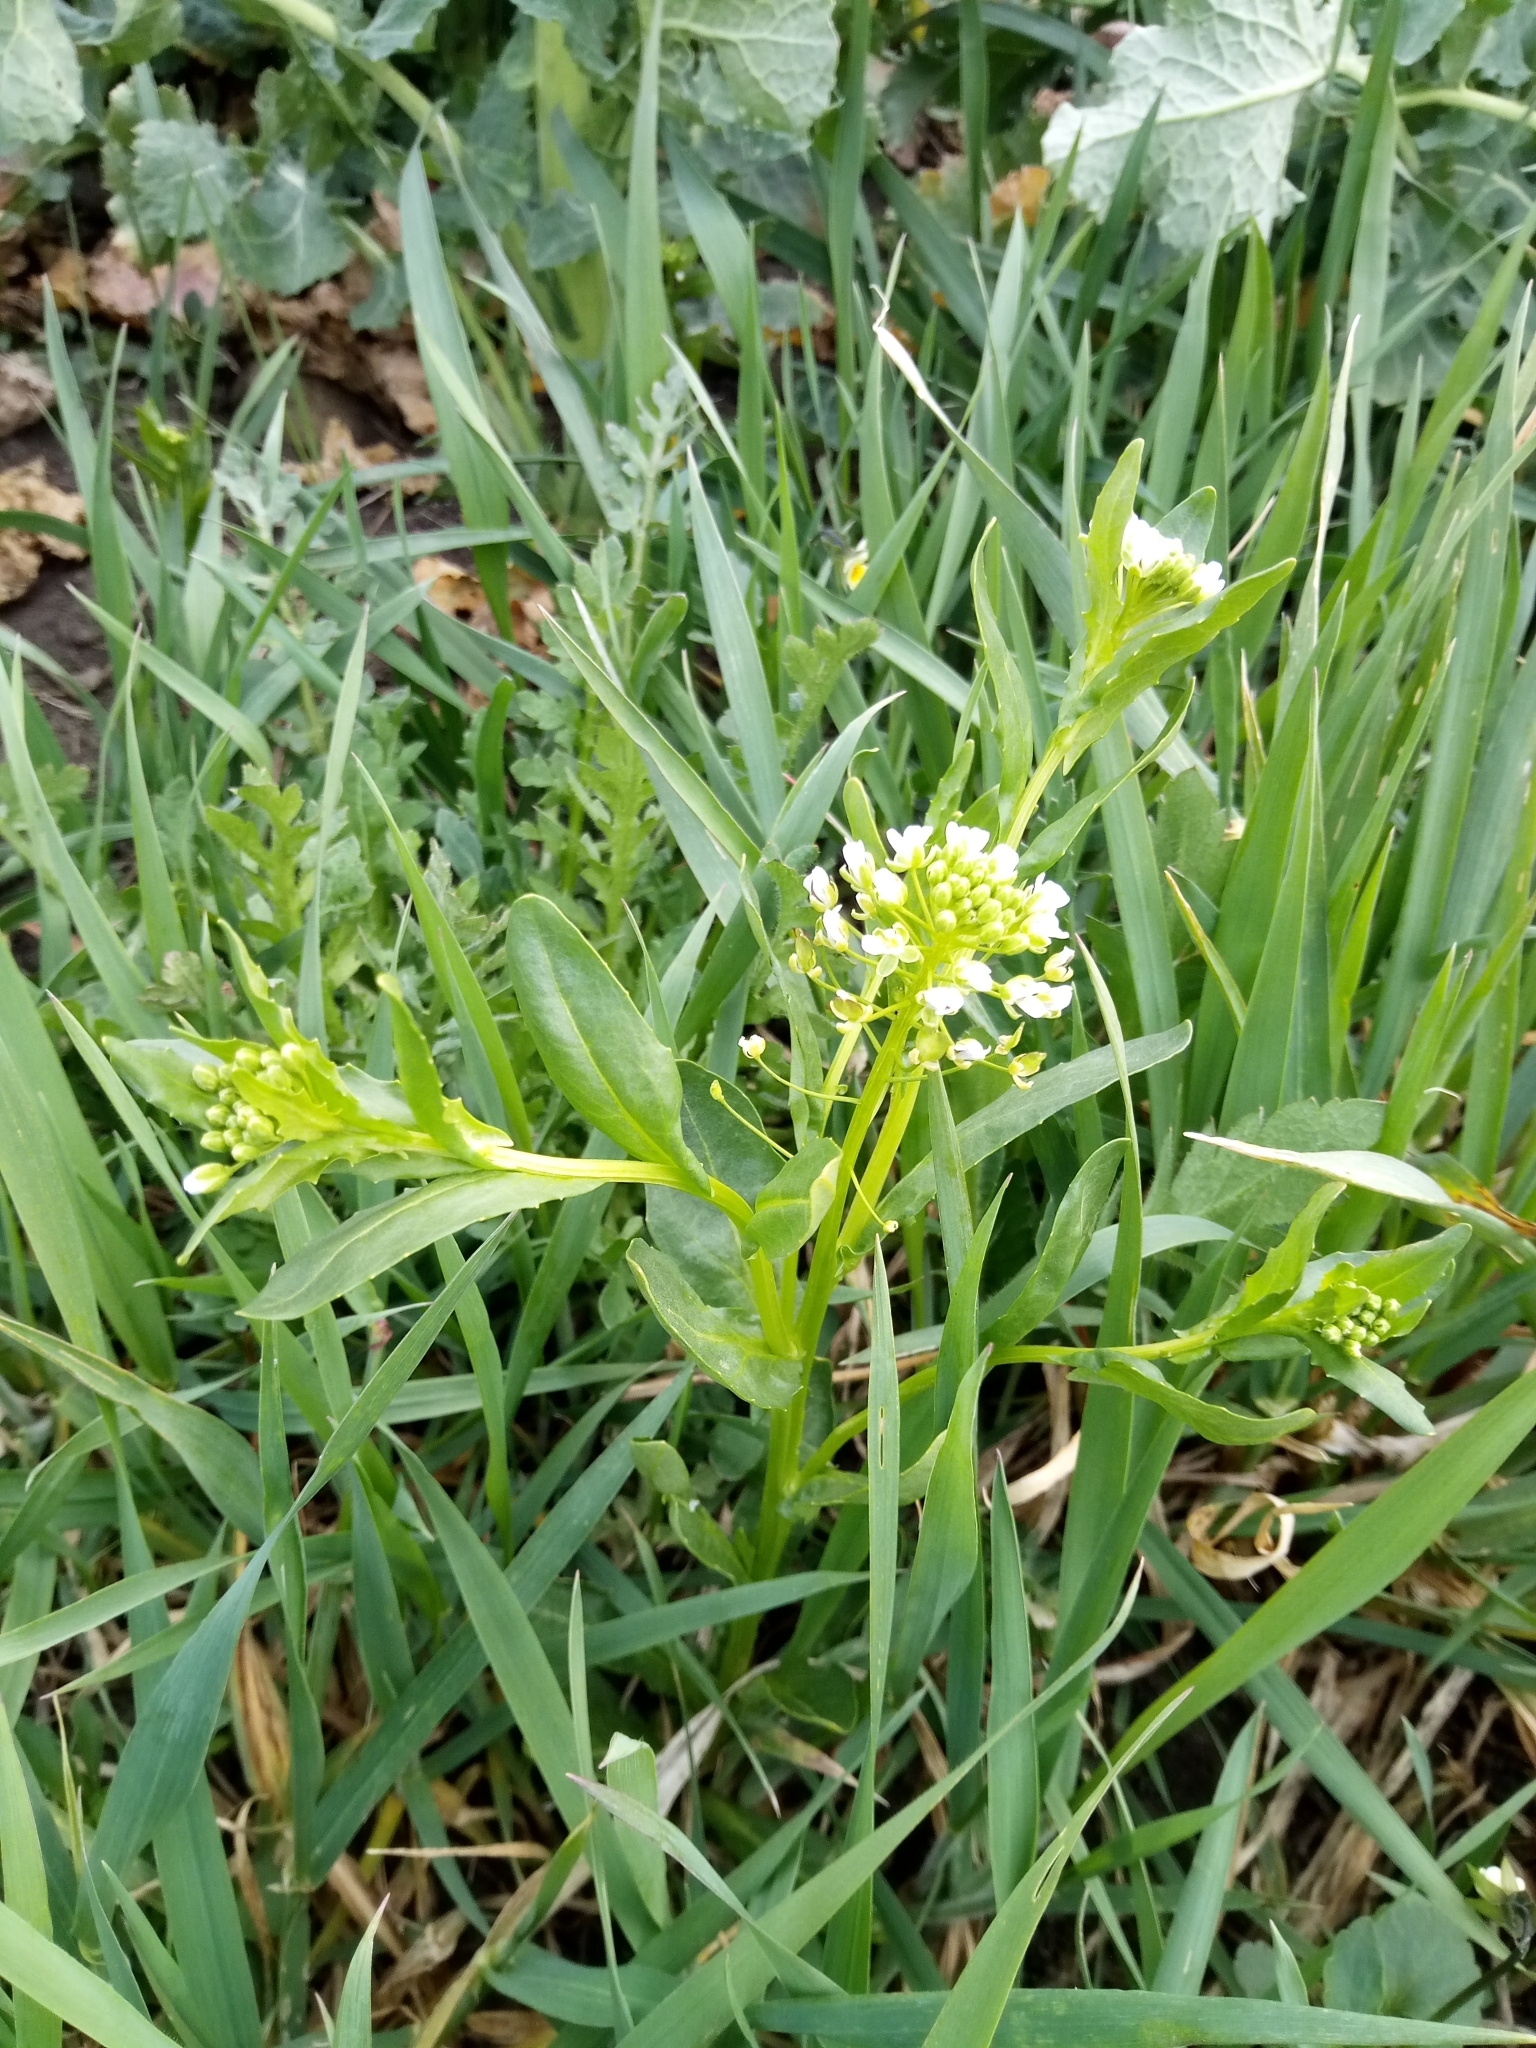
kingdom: Plantae
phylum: Tracheophyta
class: Magnoliopsida
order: Brassicales
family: Brassicaceae
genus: Thlaspi
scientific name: Thlaspi arvense
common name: Field pennycress
